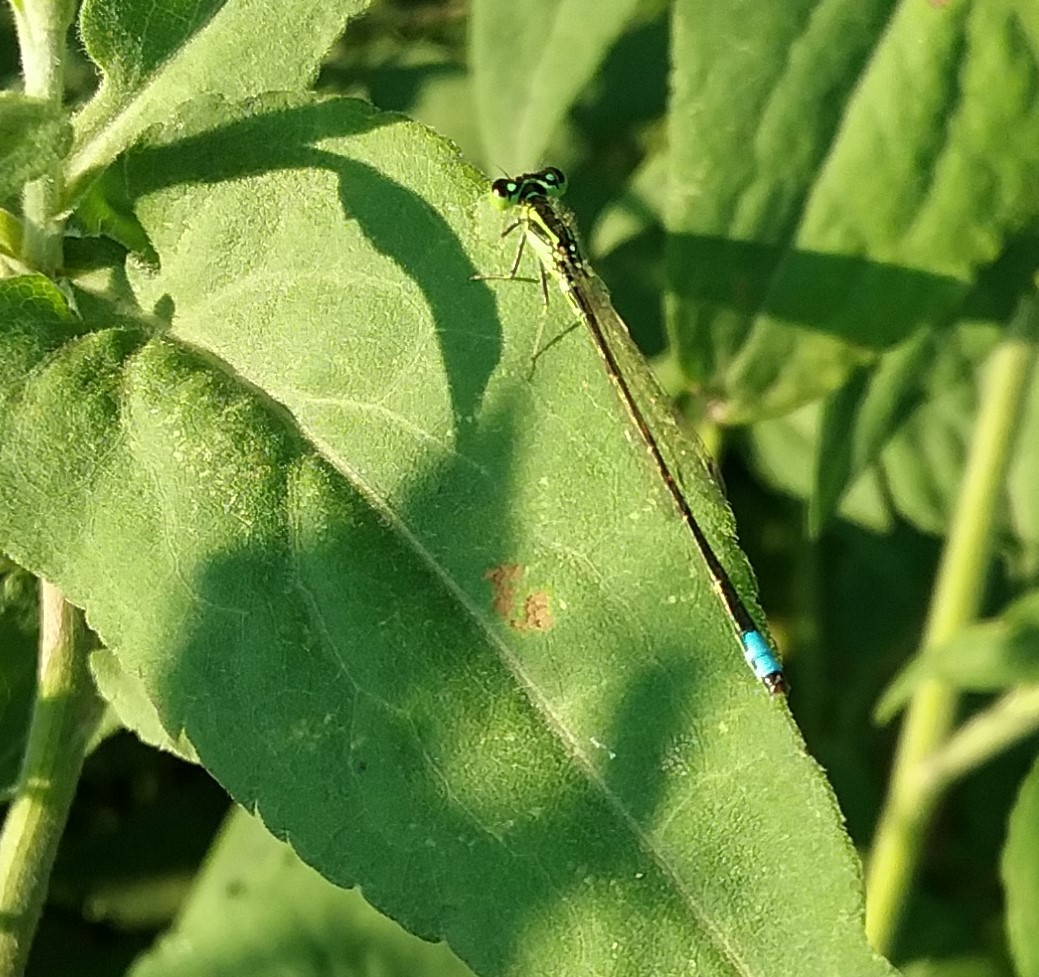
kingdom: Animalia
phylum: Arthropoda
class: Insecta
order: Odonata
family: Coenagrionidae
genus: Ischnura
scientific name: Ischnura verticalis
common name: Eastern forktail
